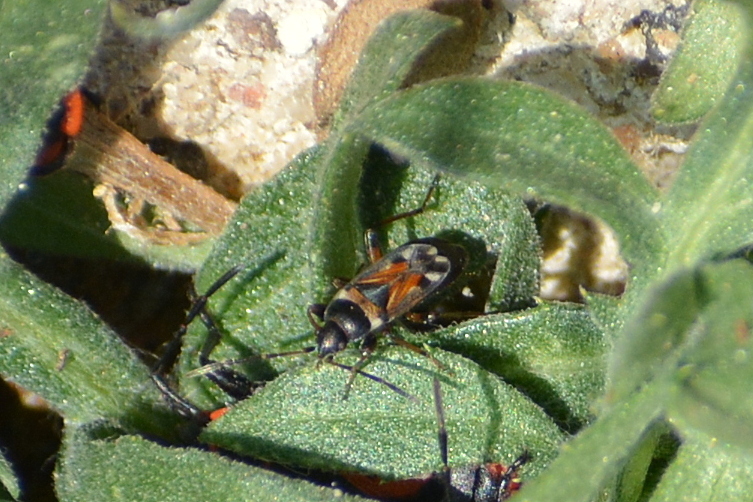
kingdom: Animalia
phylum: Arthropoda
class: Insecta
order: Hemiptera
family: Rhyparochromidae
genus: Raglius
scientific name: Raglius alboacuminatus
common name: Dirt-colored seed bug
